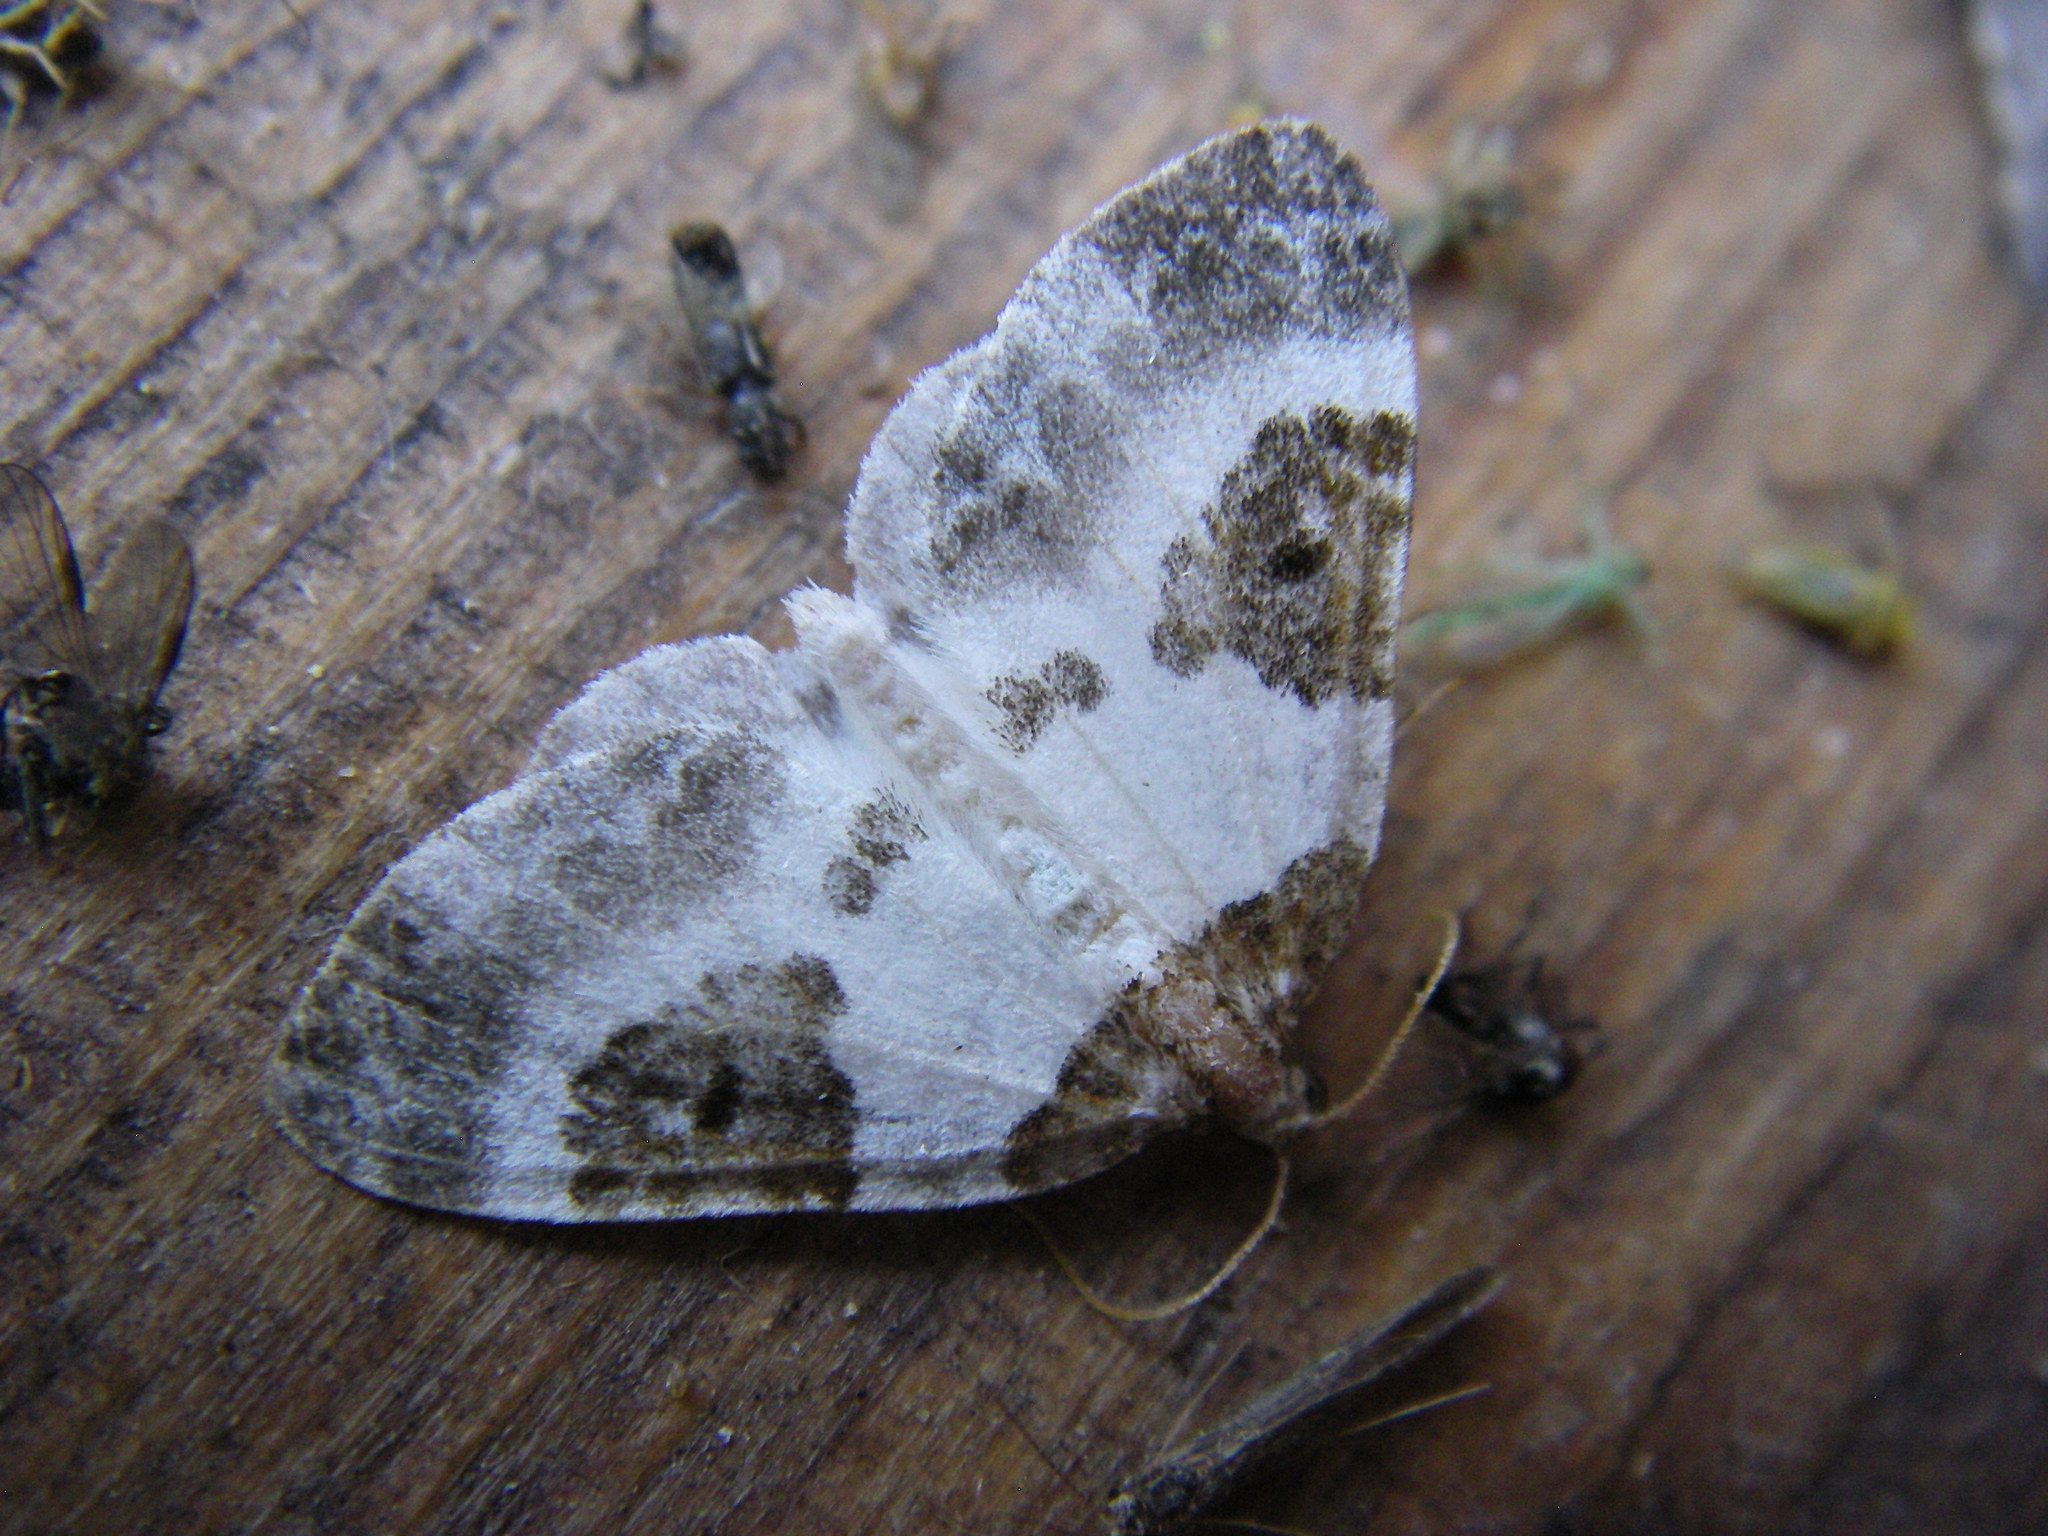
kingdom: Animalia
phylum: Arthropoda
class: Insecta
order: Lepidoptera
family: Geometridae
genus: Plemyria
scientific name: Plemyria rubiginata
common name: Blue-bordered carpet
